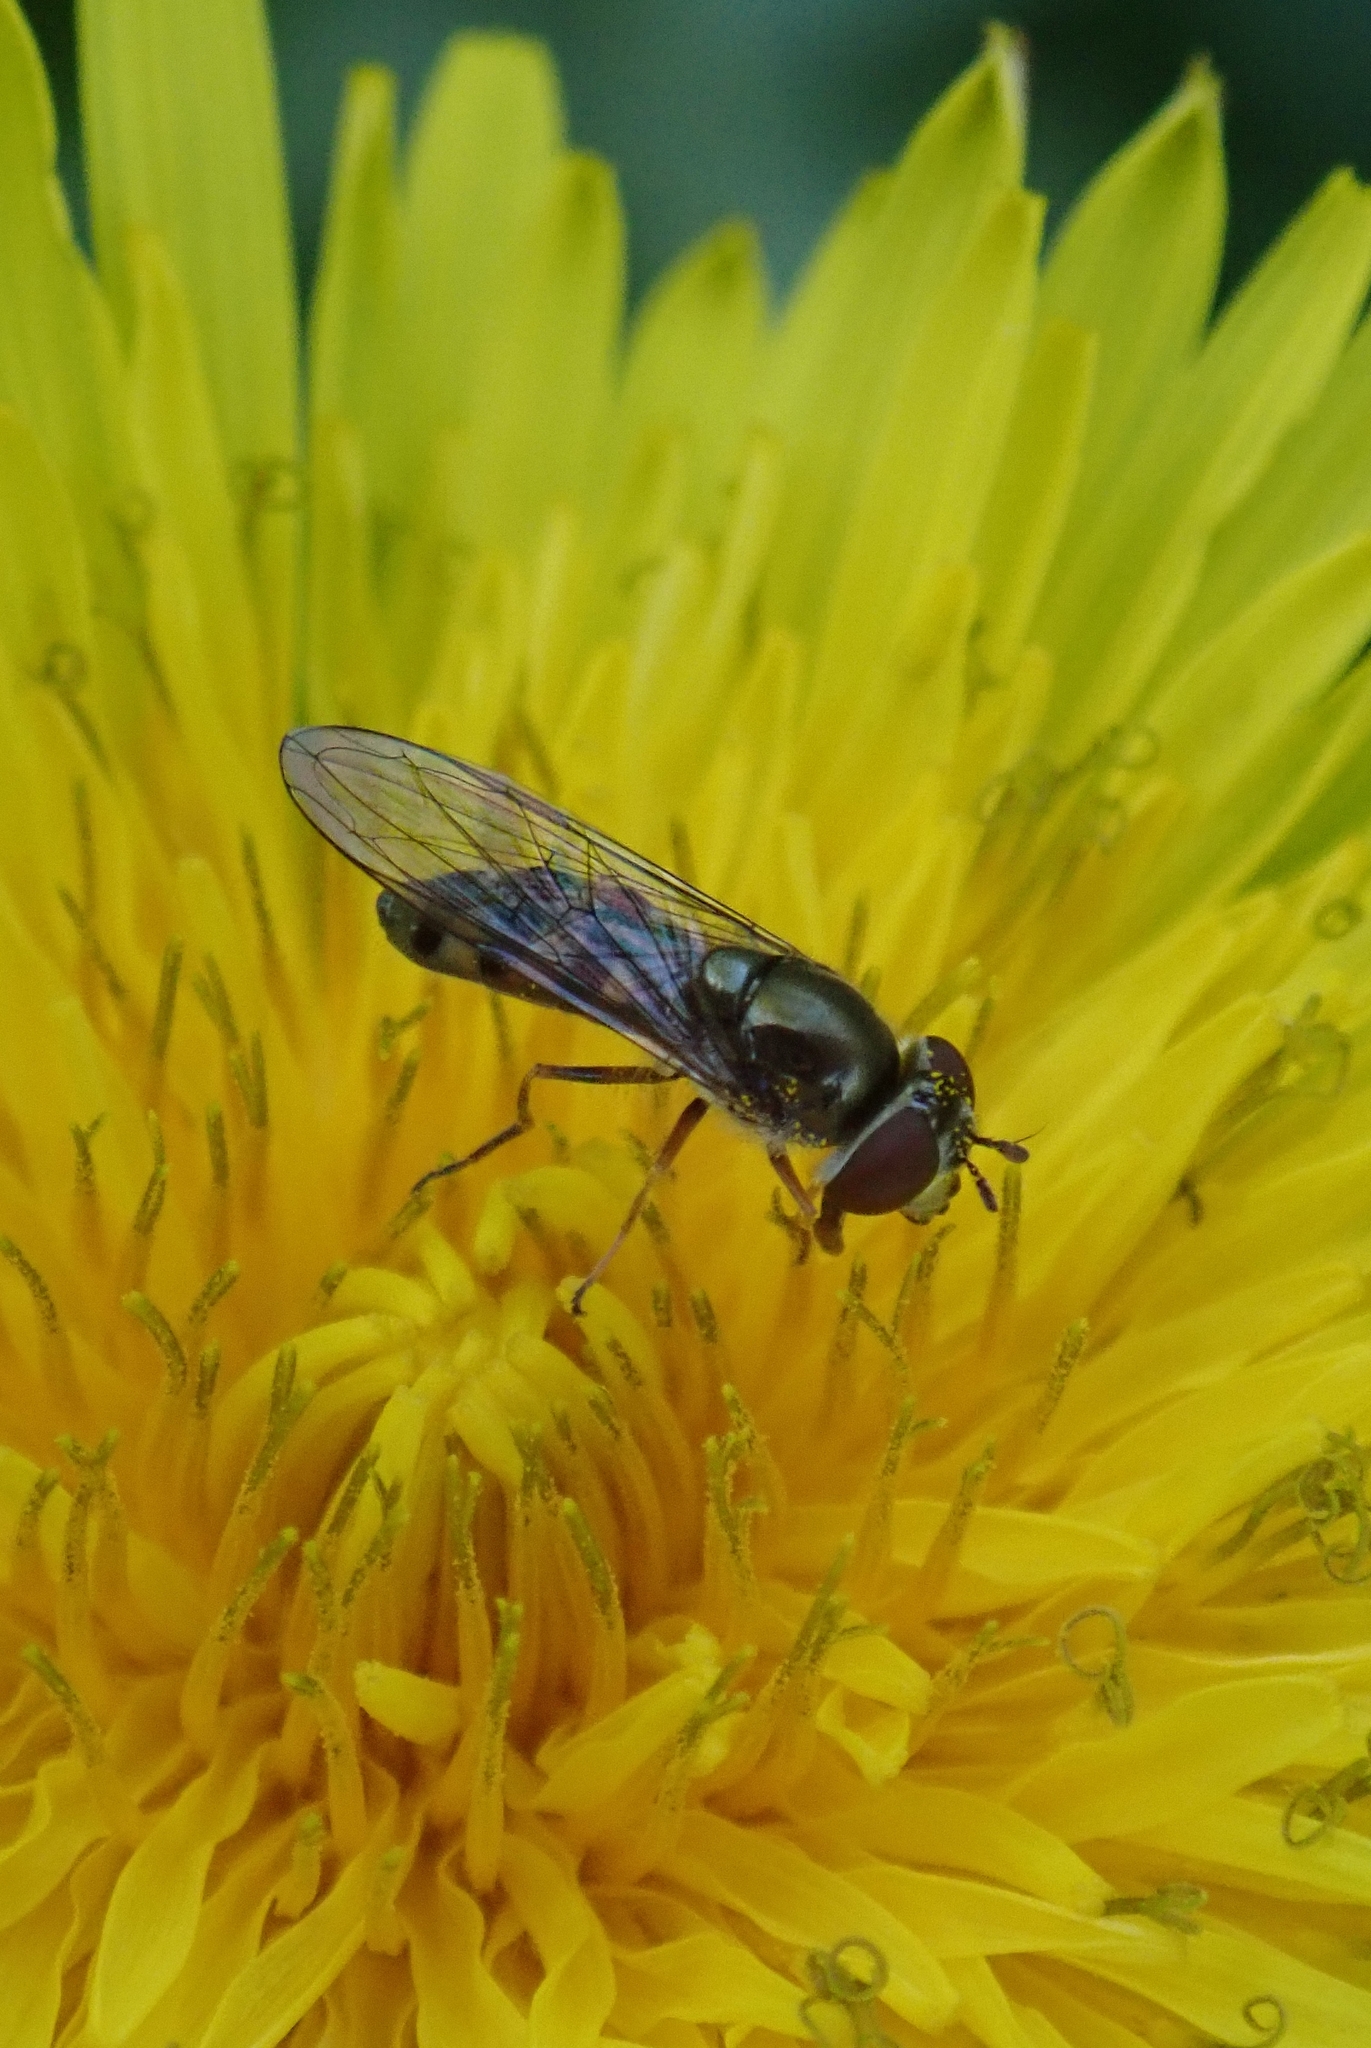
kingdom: Animalia
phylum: Arthropoda
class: Insecta
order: Diptera
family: Syrphidae
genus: Platycheirus
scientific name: Platycheirus trichopus
